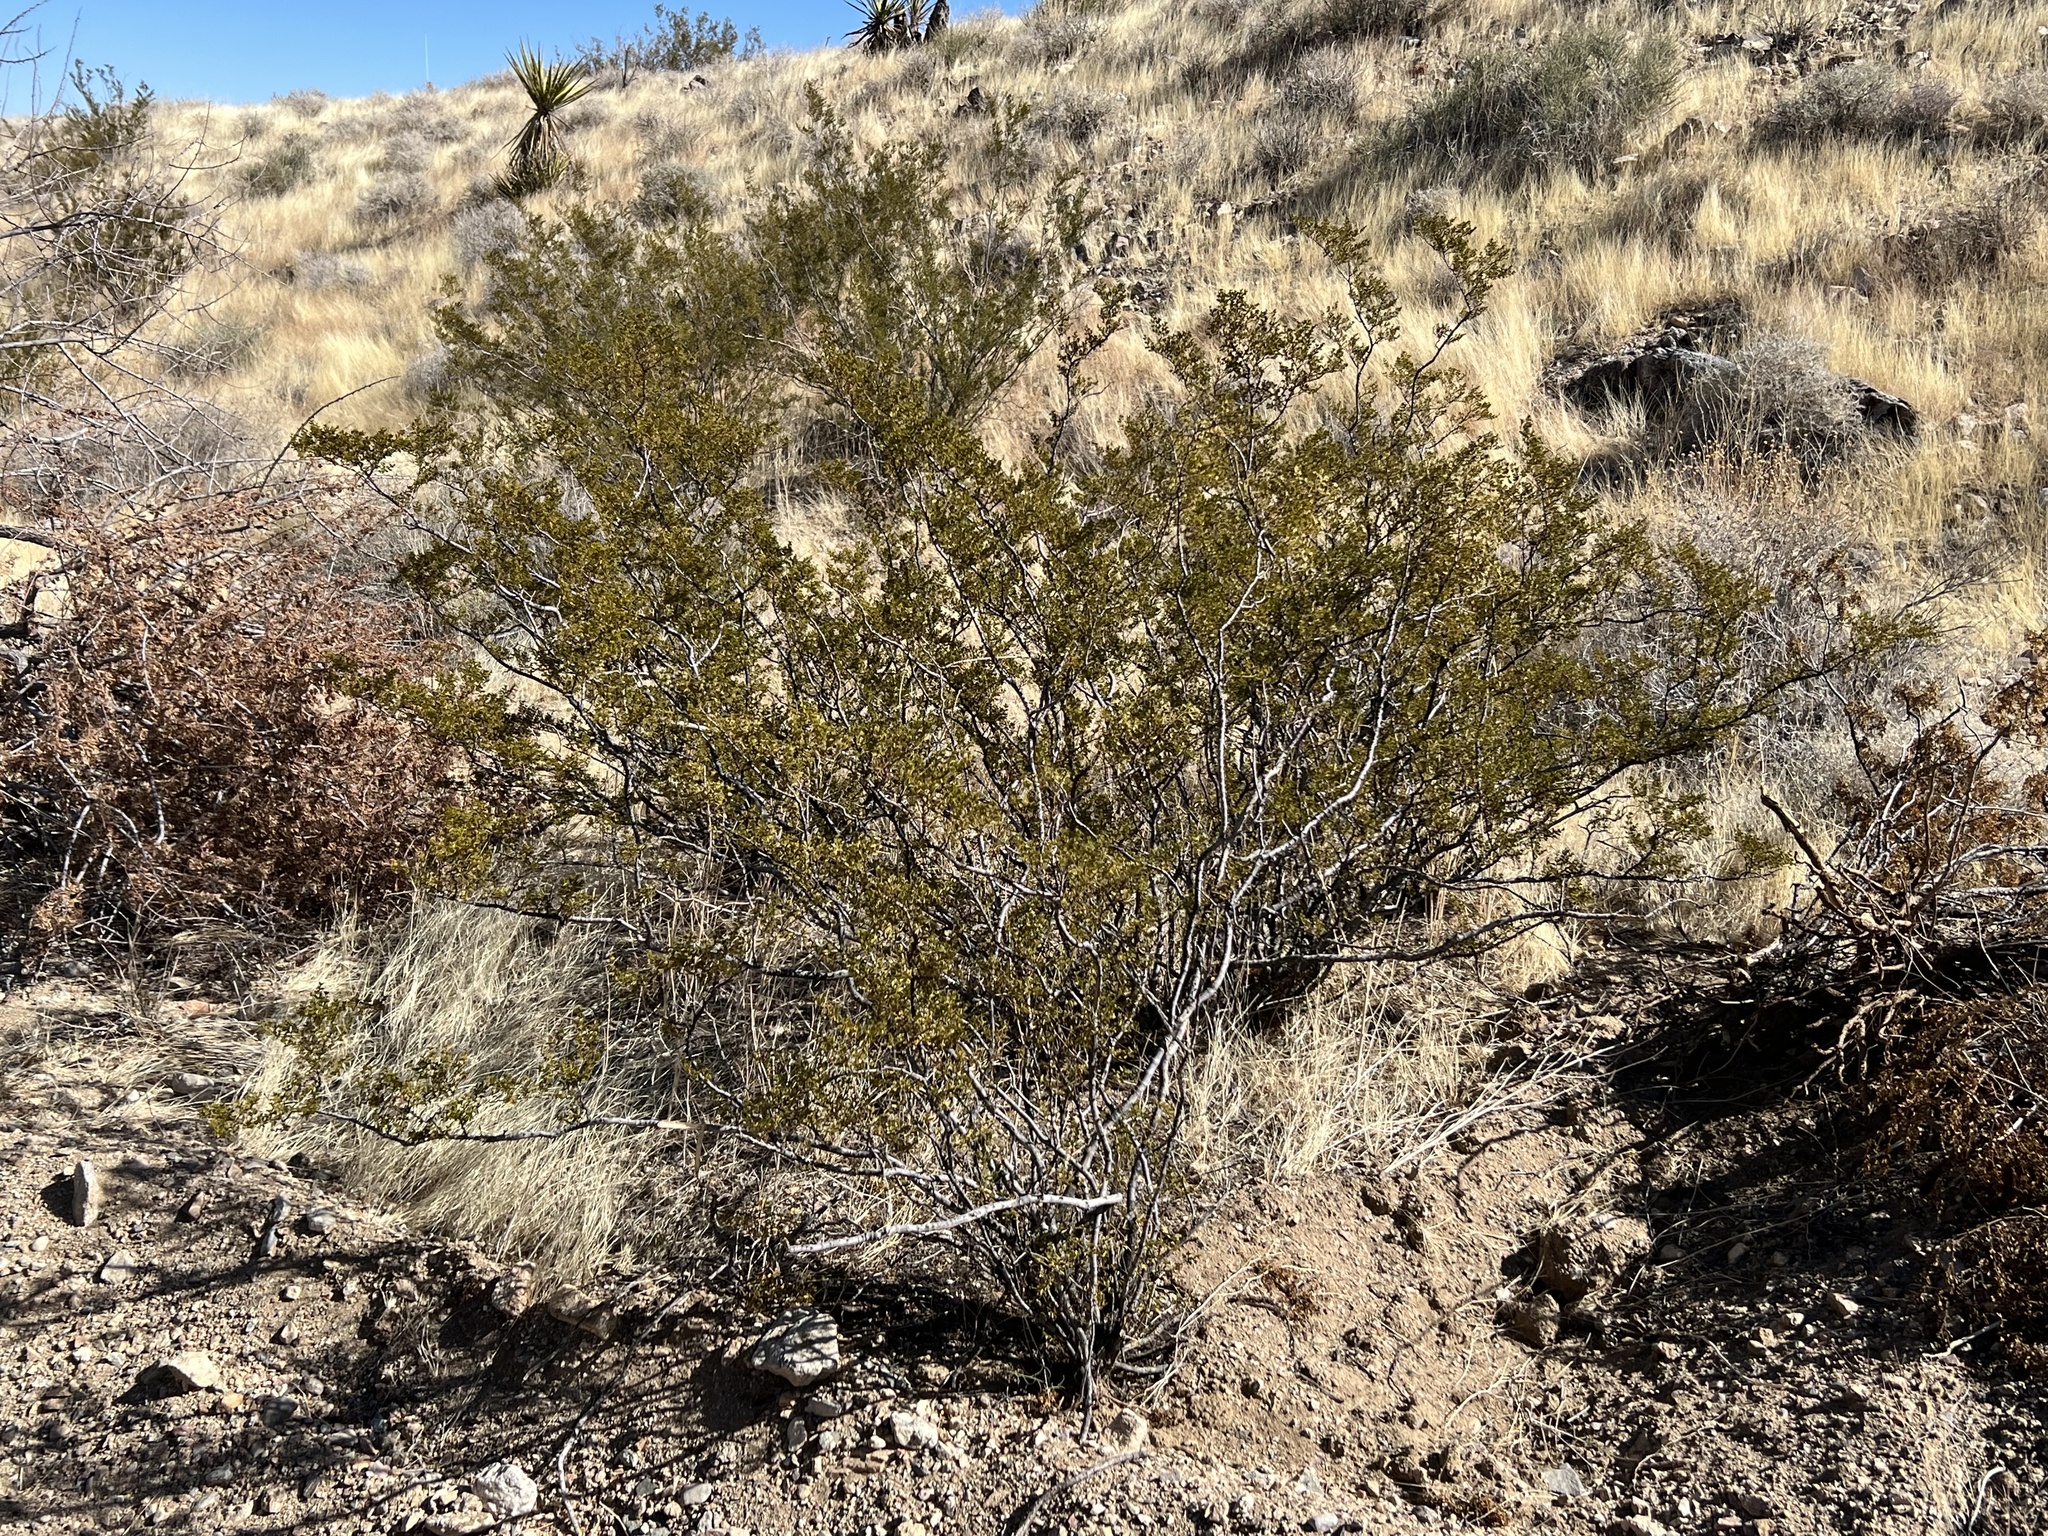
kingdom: Plantae
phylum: Tracheophyta
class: Magnoliopsida
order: Zygophyllales
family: Zygophyllaceae
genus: Larrea
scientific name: Larrea tridentata
